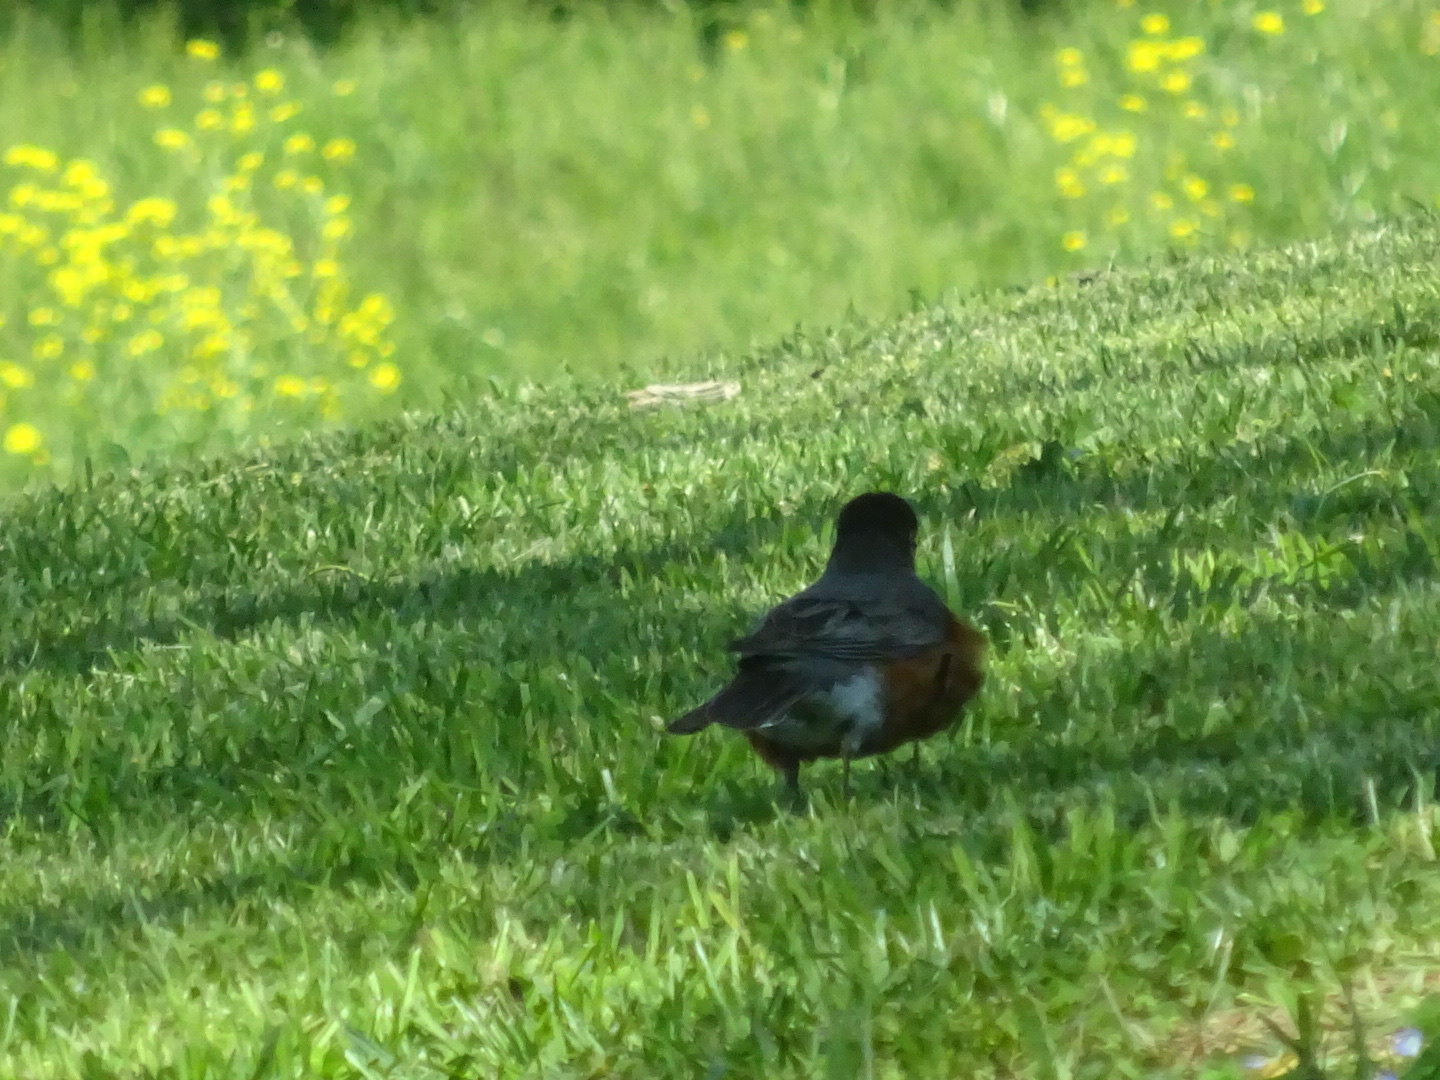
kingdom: Animalia
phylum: Chordata
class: Aves
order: Passeriformes
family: Turdidae
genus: Turdus
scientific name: Turdus migratorius
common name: American robin
